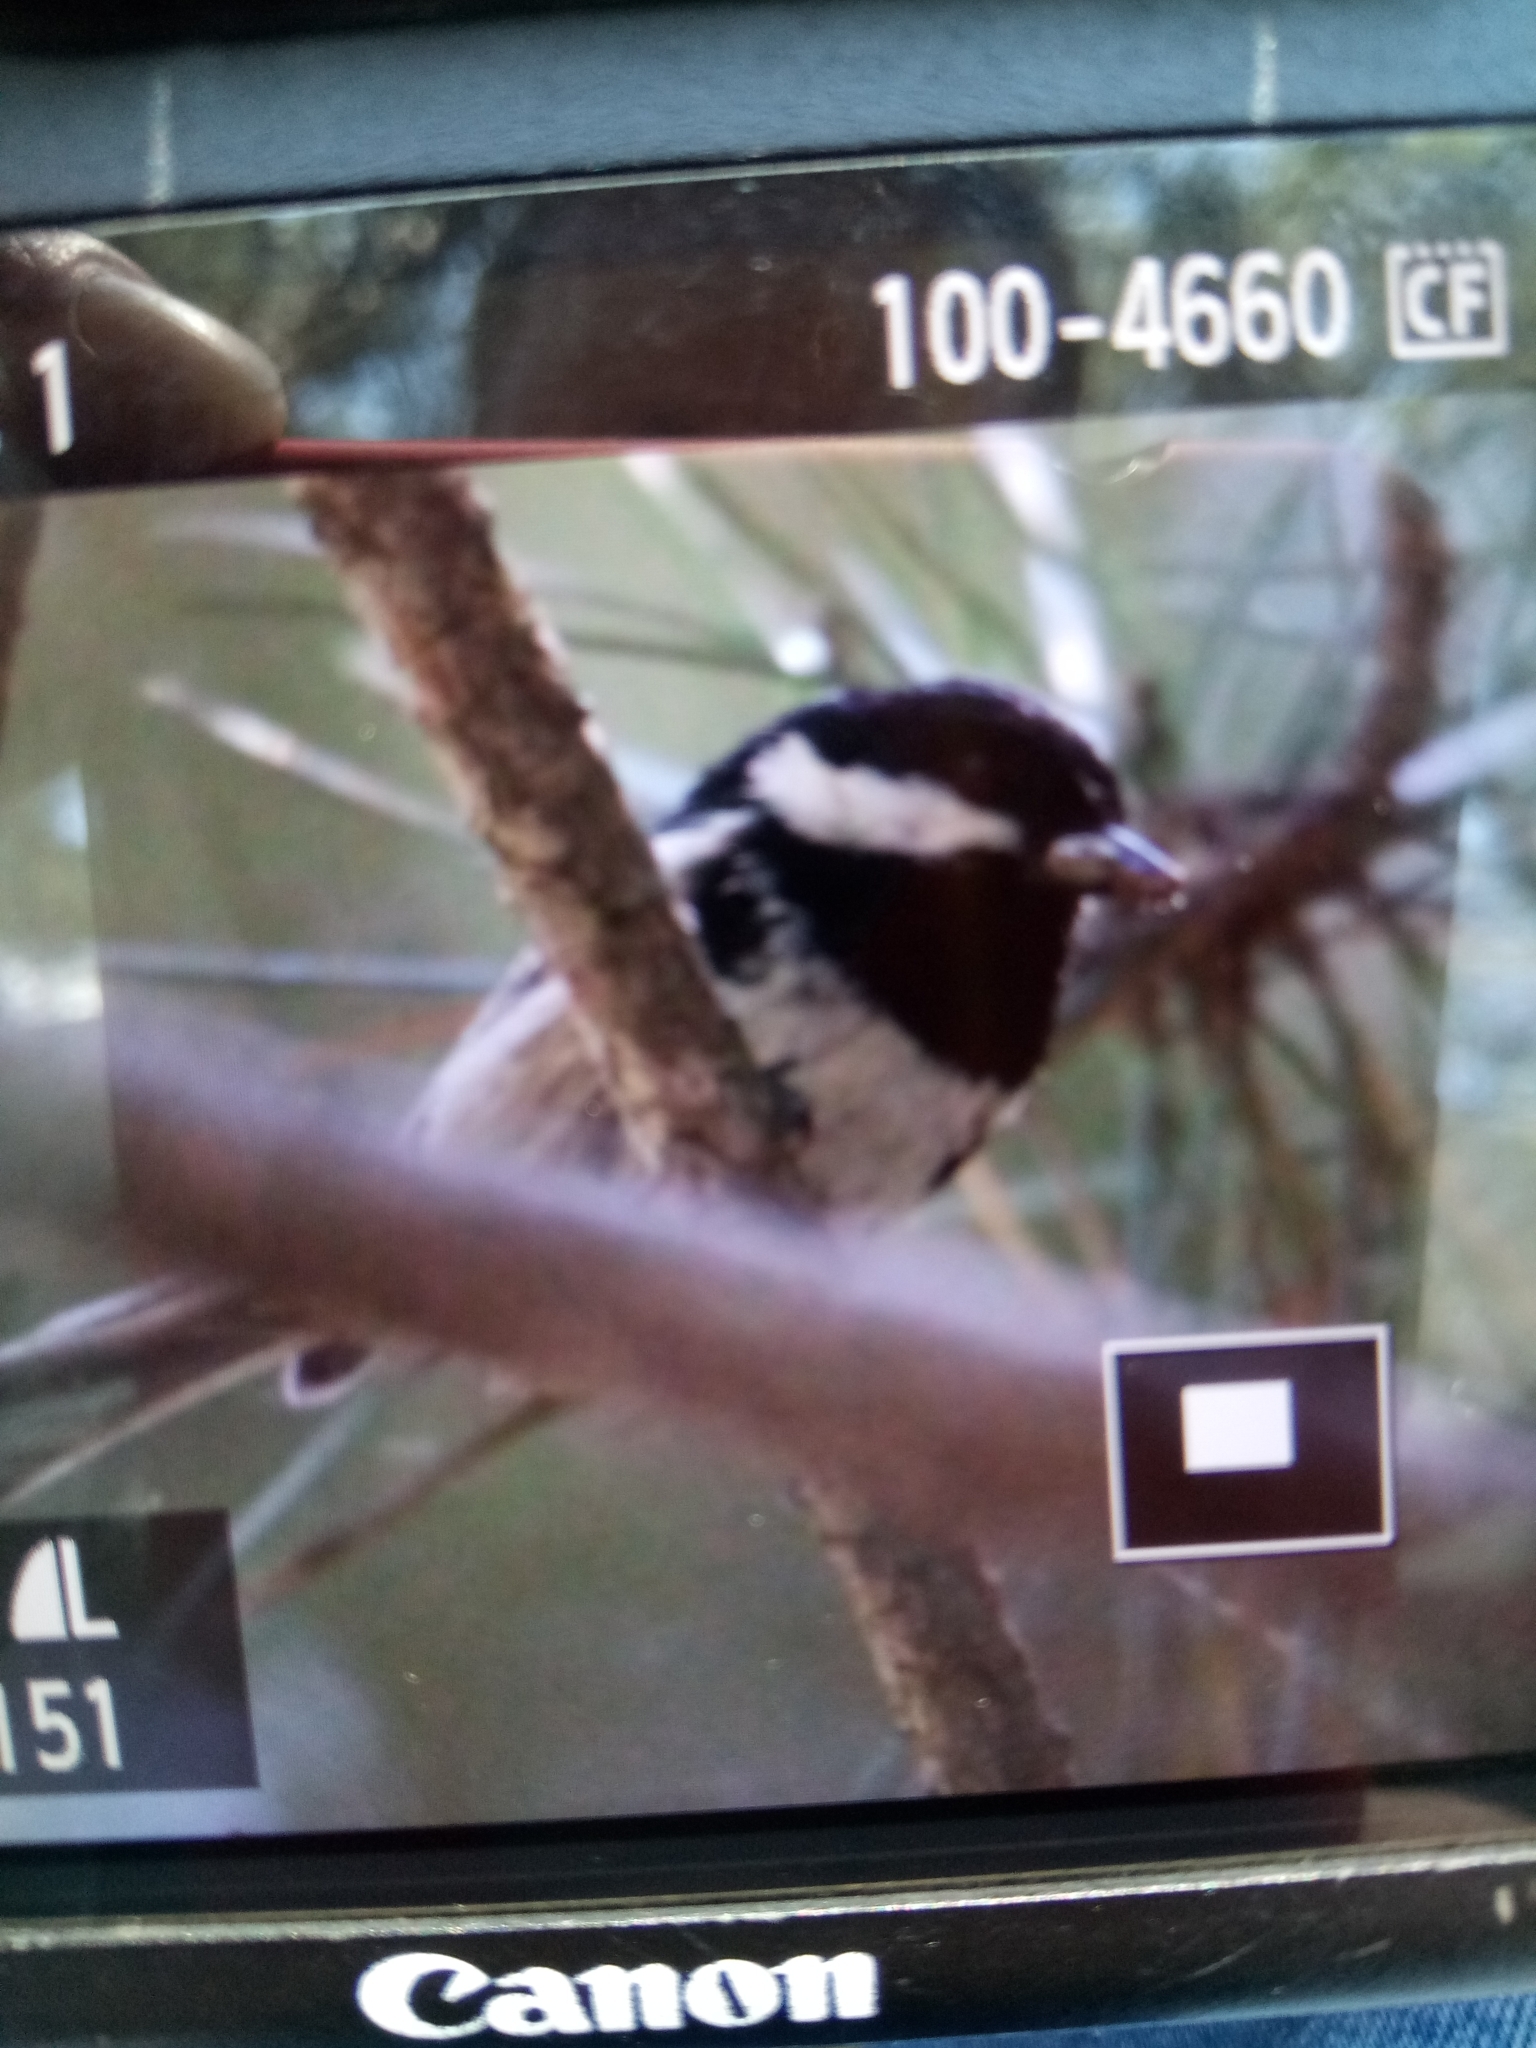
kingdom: Animalia
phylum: Chordata
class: Aves
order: Passeriformes
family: Paridae
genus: Periparus
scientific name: Periparus ater
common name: Coal tit
